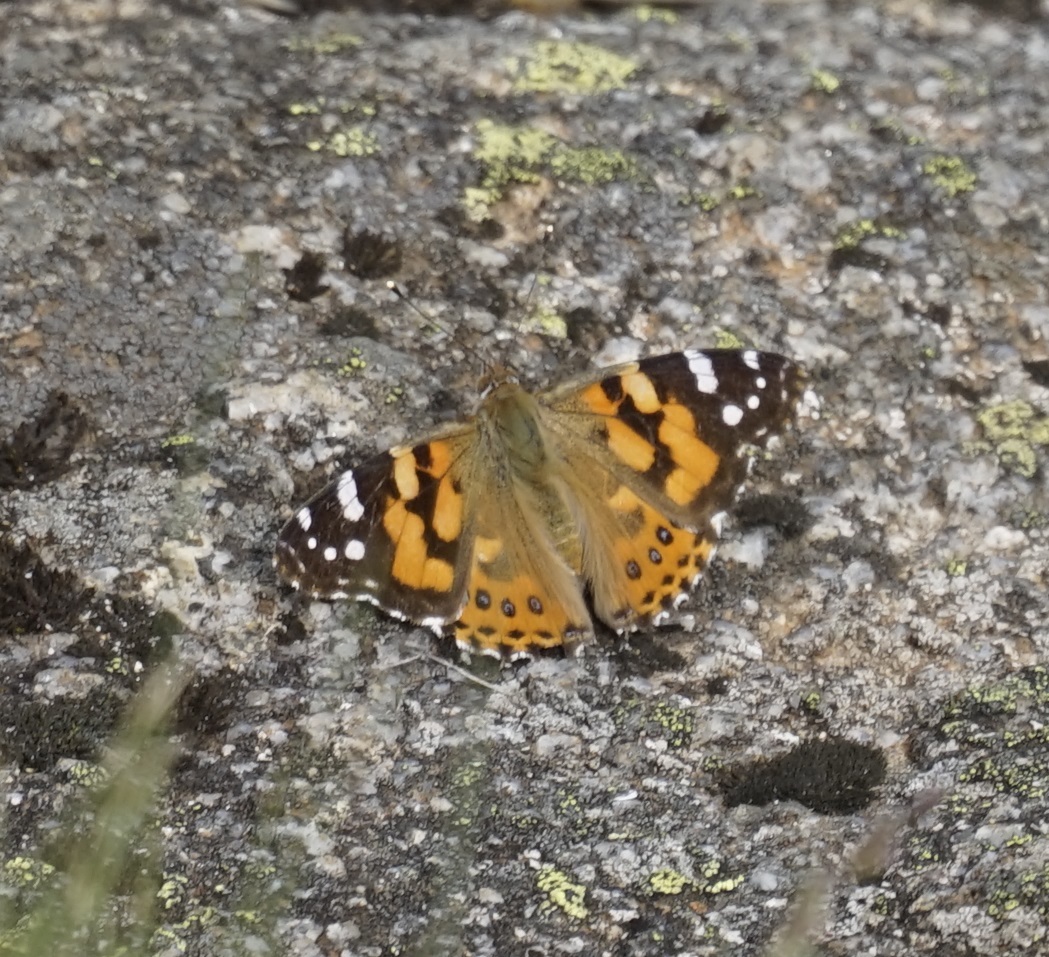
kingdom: Animalia
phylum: Arthropoda
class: Insecta
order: Lepidoptera
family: Nymphalidae
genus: Vanessa
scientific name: Vanessa kershawi
